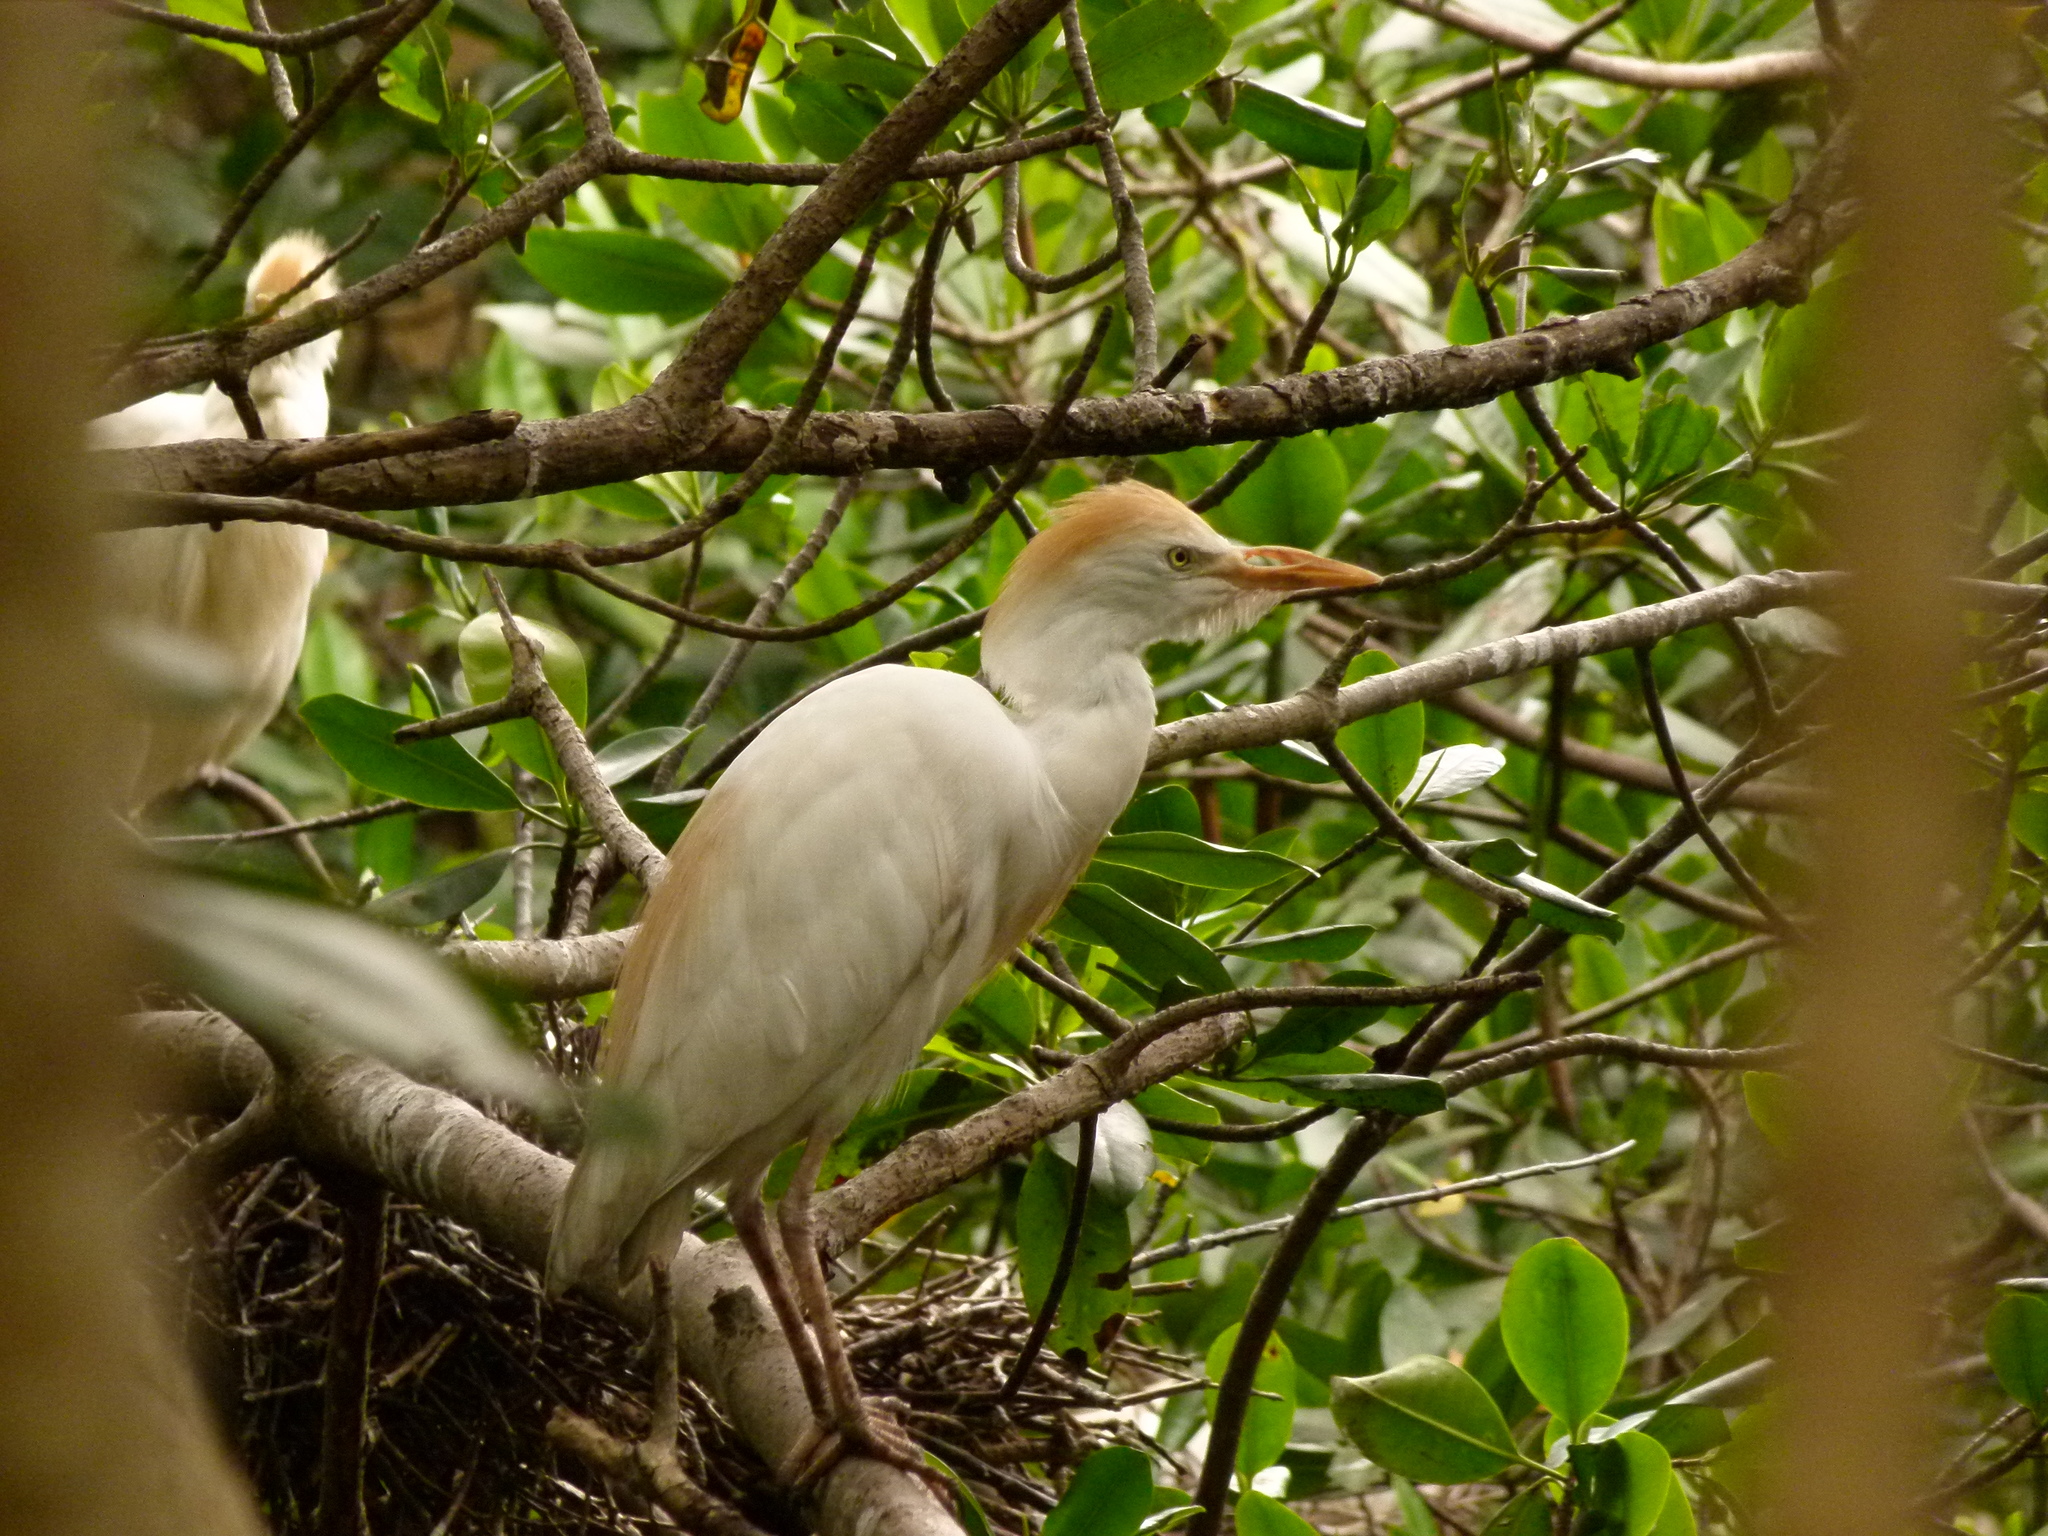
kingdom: Animalia
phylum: Chordata
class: Aves
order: Pelecaniformes
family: Ardeidae
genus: Bubulcus
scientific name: Bubulcus ibis
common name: Cattle egret
